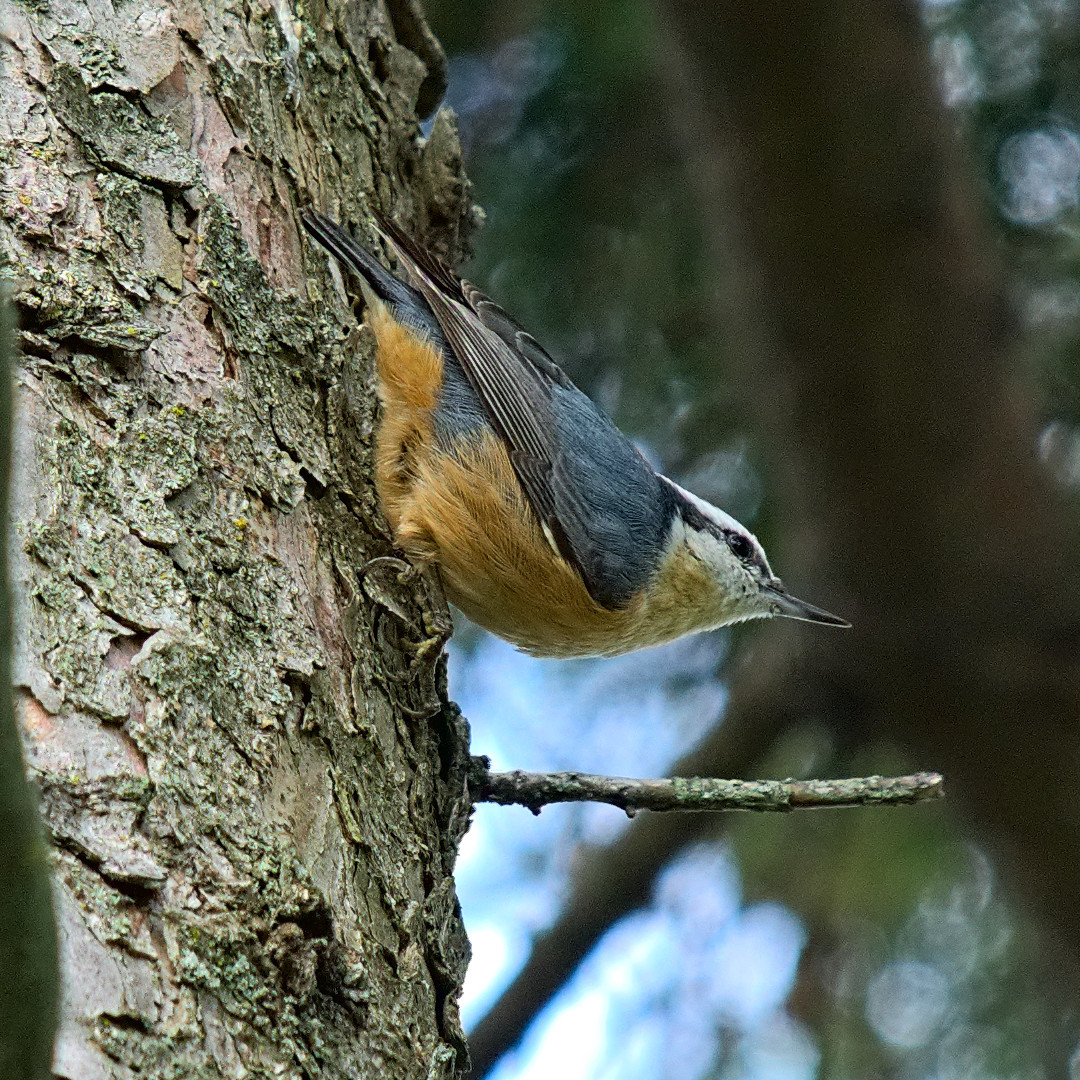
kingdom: Animalia
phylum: Chordata
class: Aves
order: Passeriformes
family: Sittidae
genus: Sitta
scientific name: Sitta canadensis
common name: Red-breasted nuthatch
